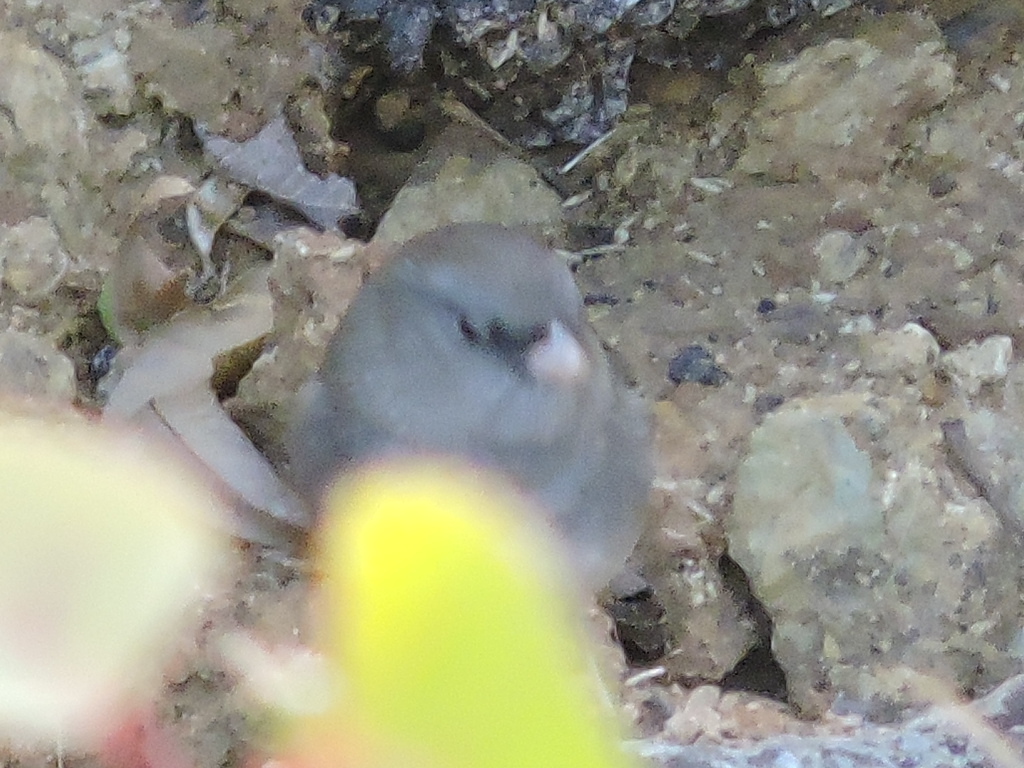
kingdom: Animalia
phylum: Chordata
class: Aves
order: Passeriformes
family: Passerellidae
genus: Junco
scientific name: Junco hyemalis
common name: Dark-eyed junco
